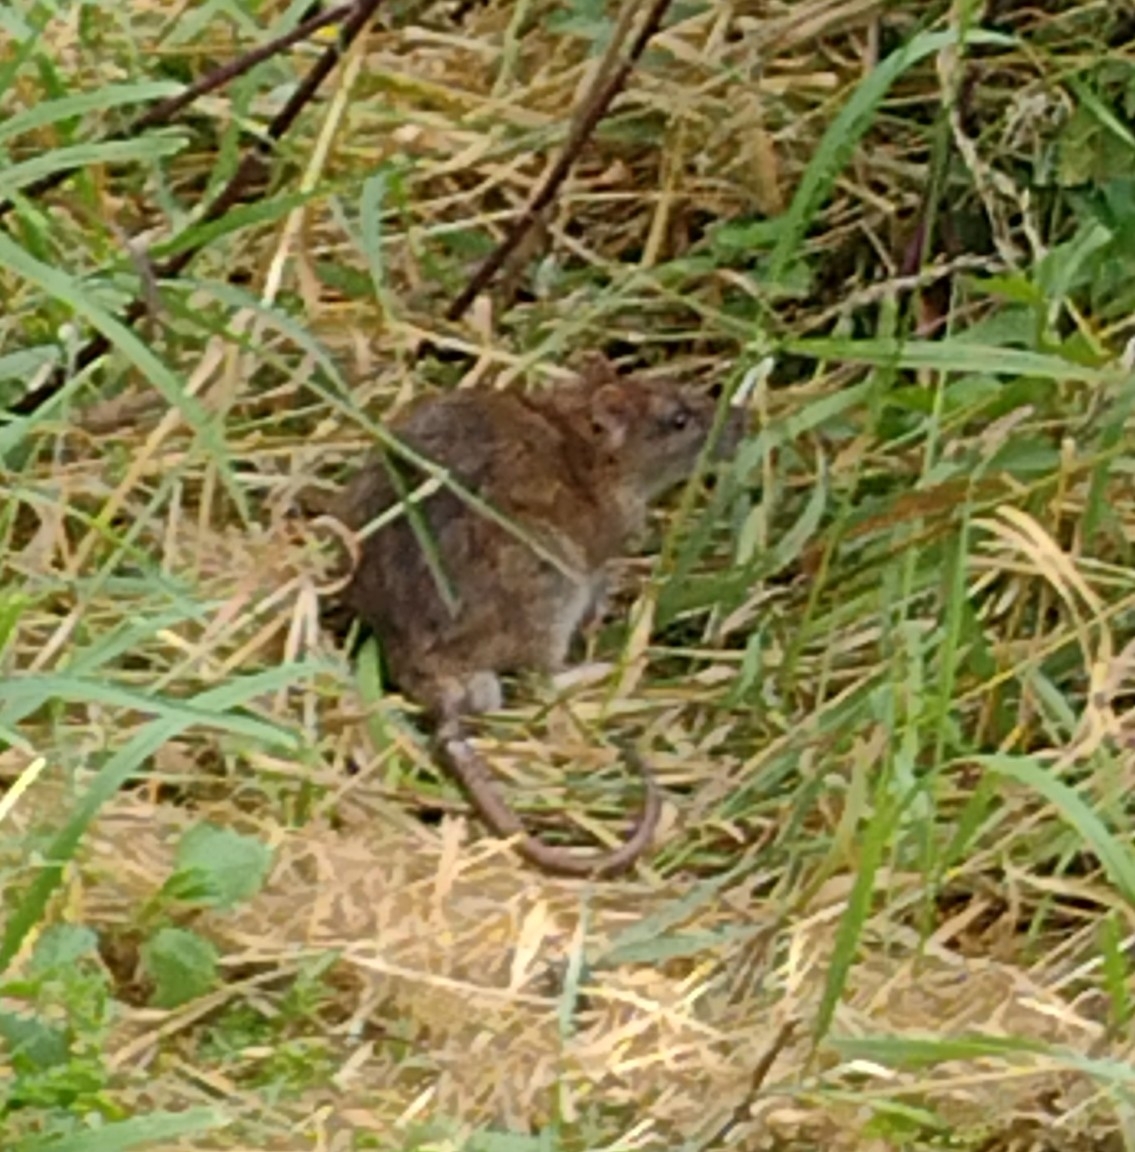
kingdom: Animalia
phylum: Chordata
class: Mammalia
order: Rodentia
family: Muridae
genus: Rattus
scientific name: Rattus norvegicus
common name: Brown rat
